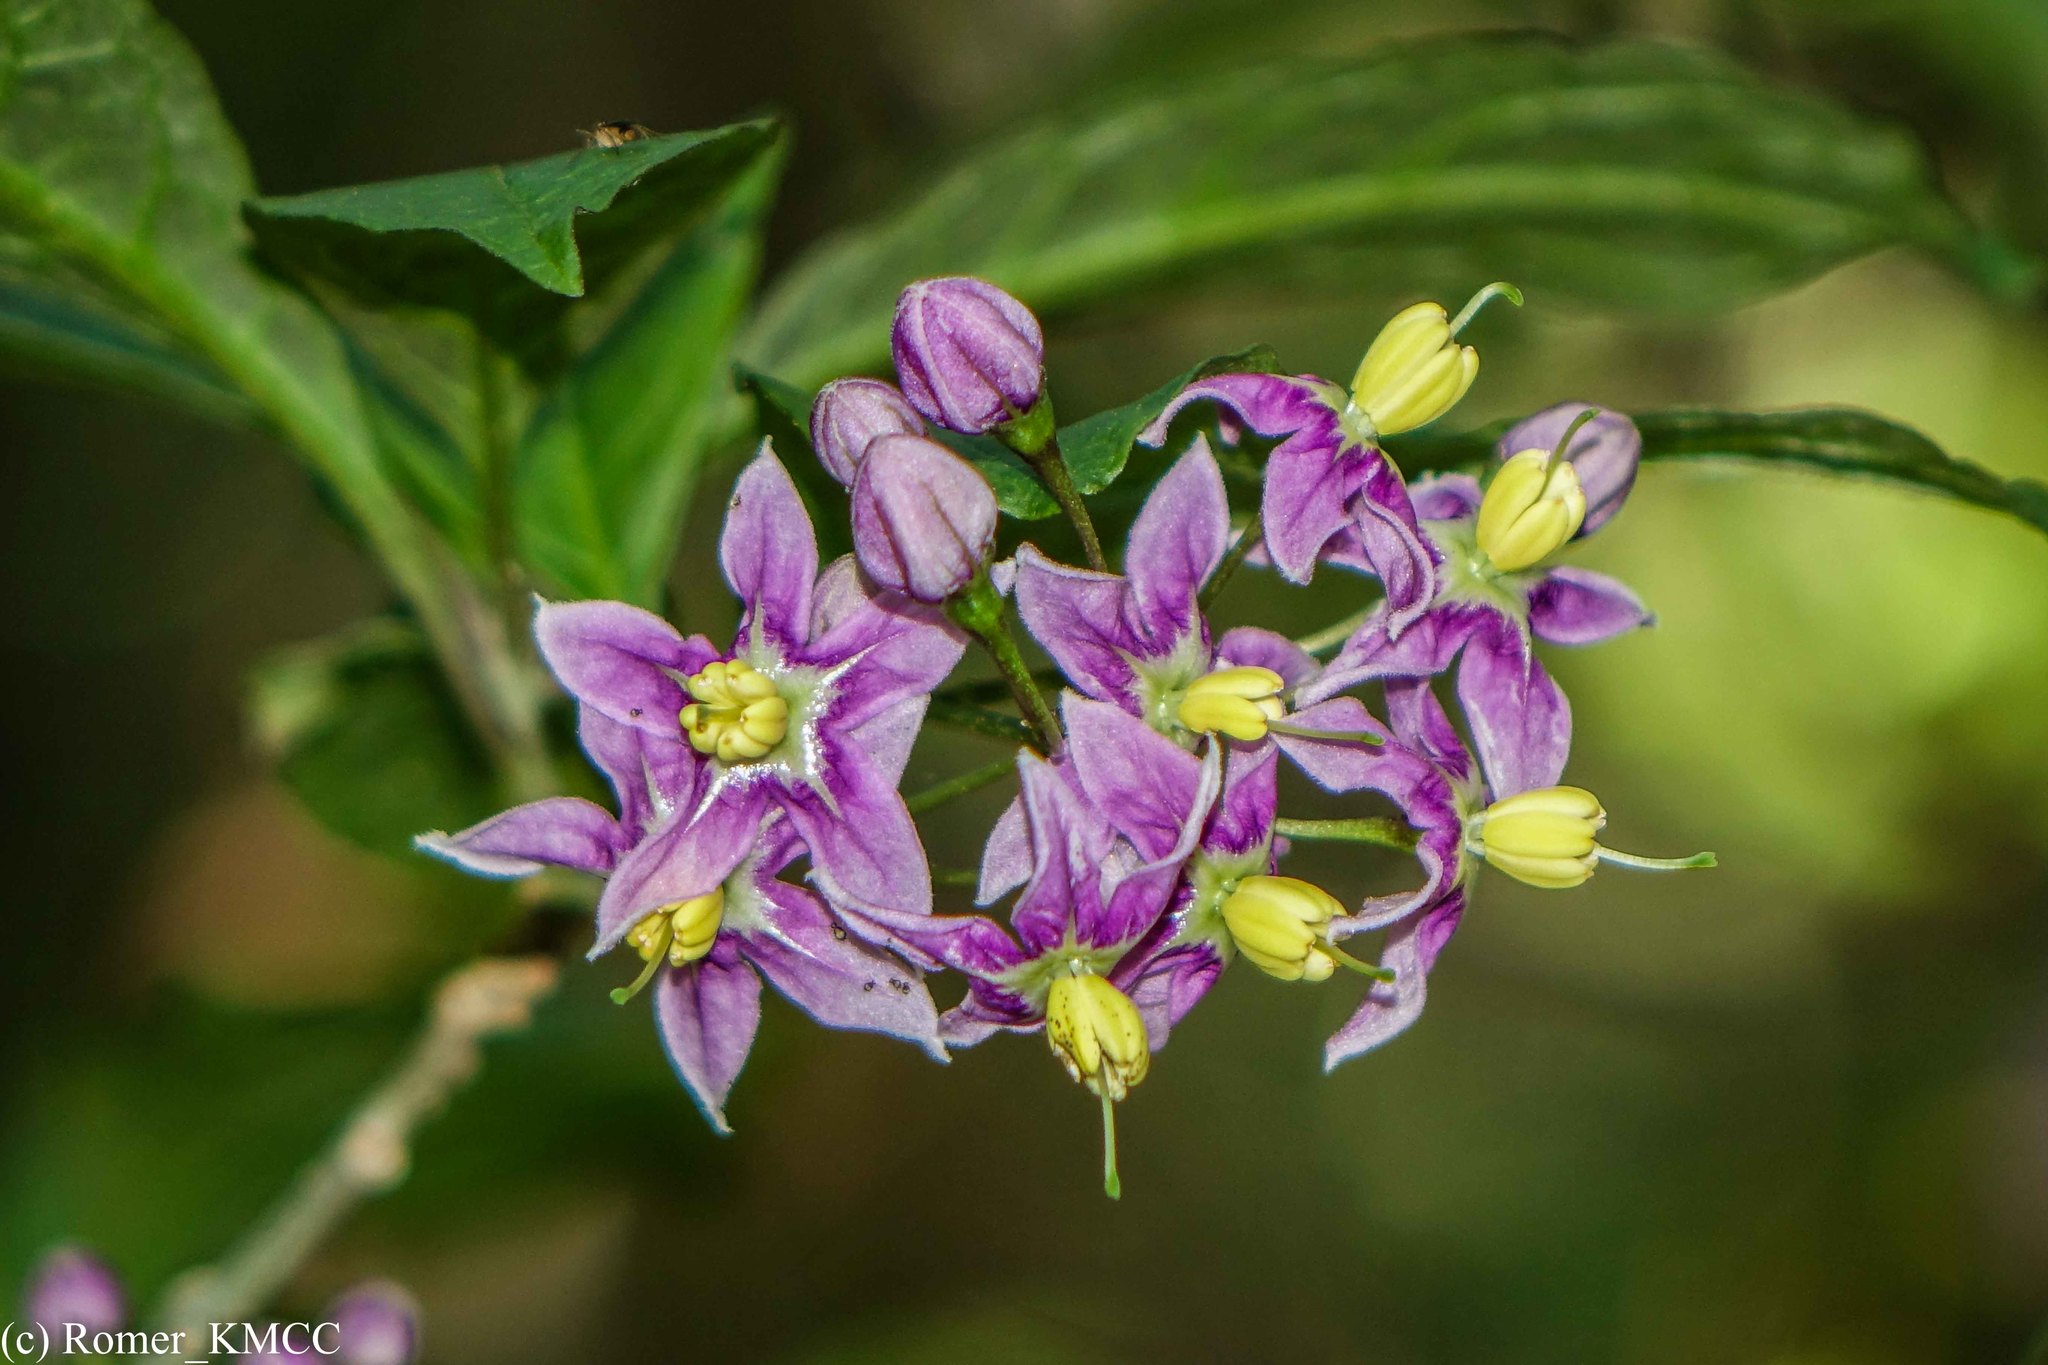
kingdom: Plantae
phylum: Tracheophyta
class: Magnoliopsida
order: Solanales
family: Solanaceae
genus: Solanum
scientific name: Solanum ivohibe
